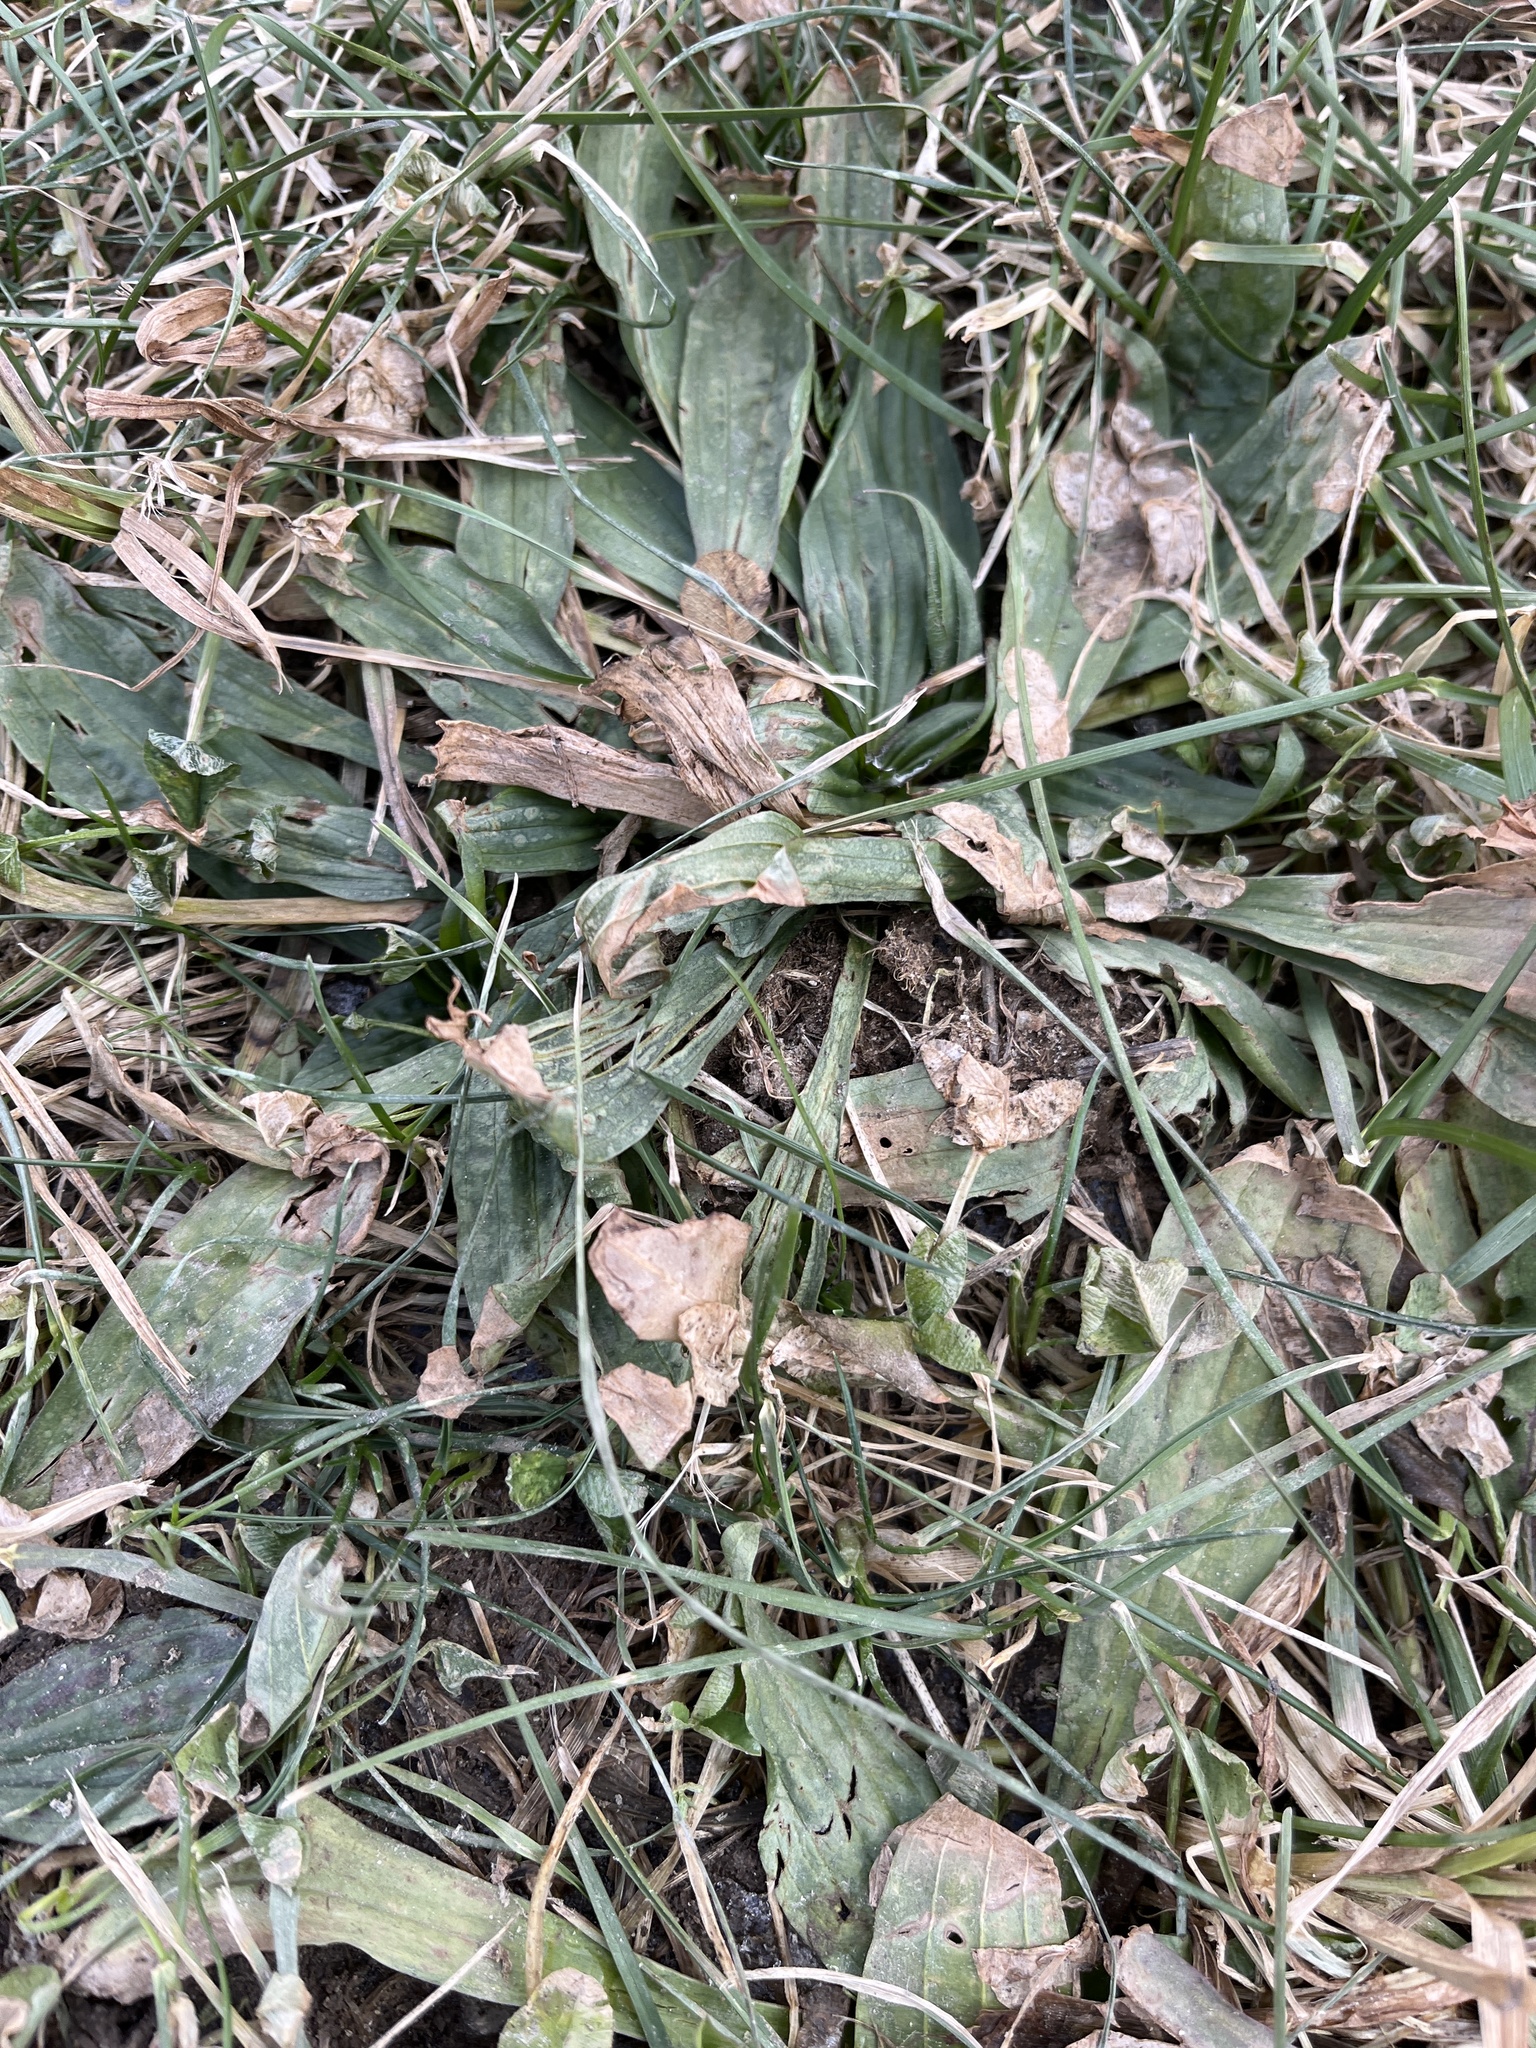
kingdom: Plantae
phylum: Tracheophyta
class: Magnoliopsida
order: Lamiales
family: Plantaginaceae
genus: Plantago
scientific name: Plantago lanceolata
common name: Ribwort plantain
